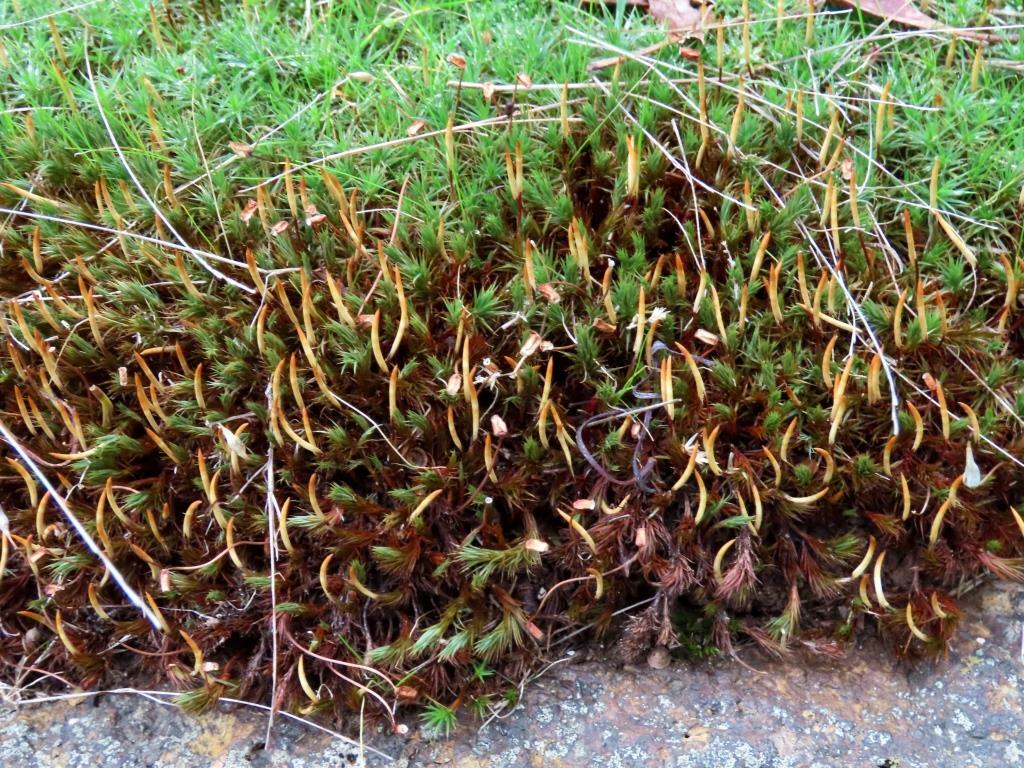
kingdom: Plantae
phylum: Bryophyta
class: Polytrichopsida
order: Polytrichales
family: Polytrichaceae
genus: Polytrichum
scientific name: Polytrichum juniperinum
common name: Juniper haircap moss
